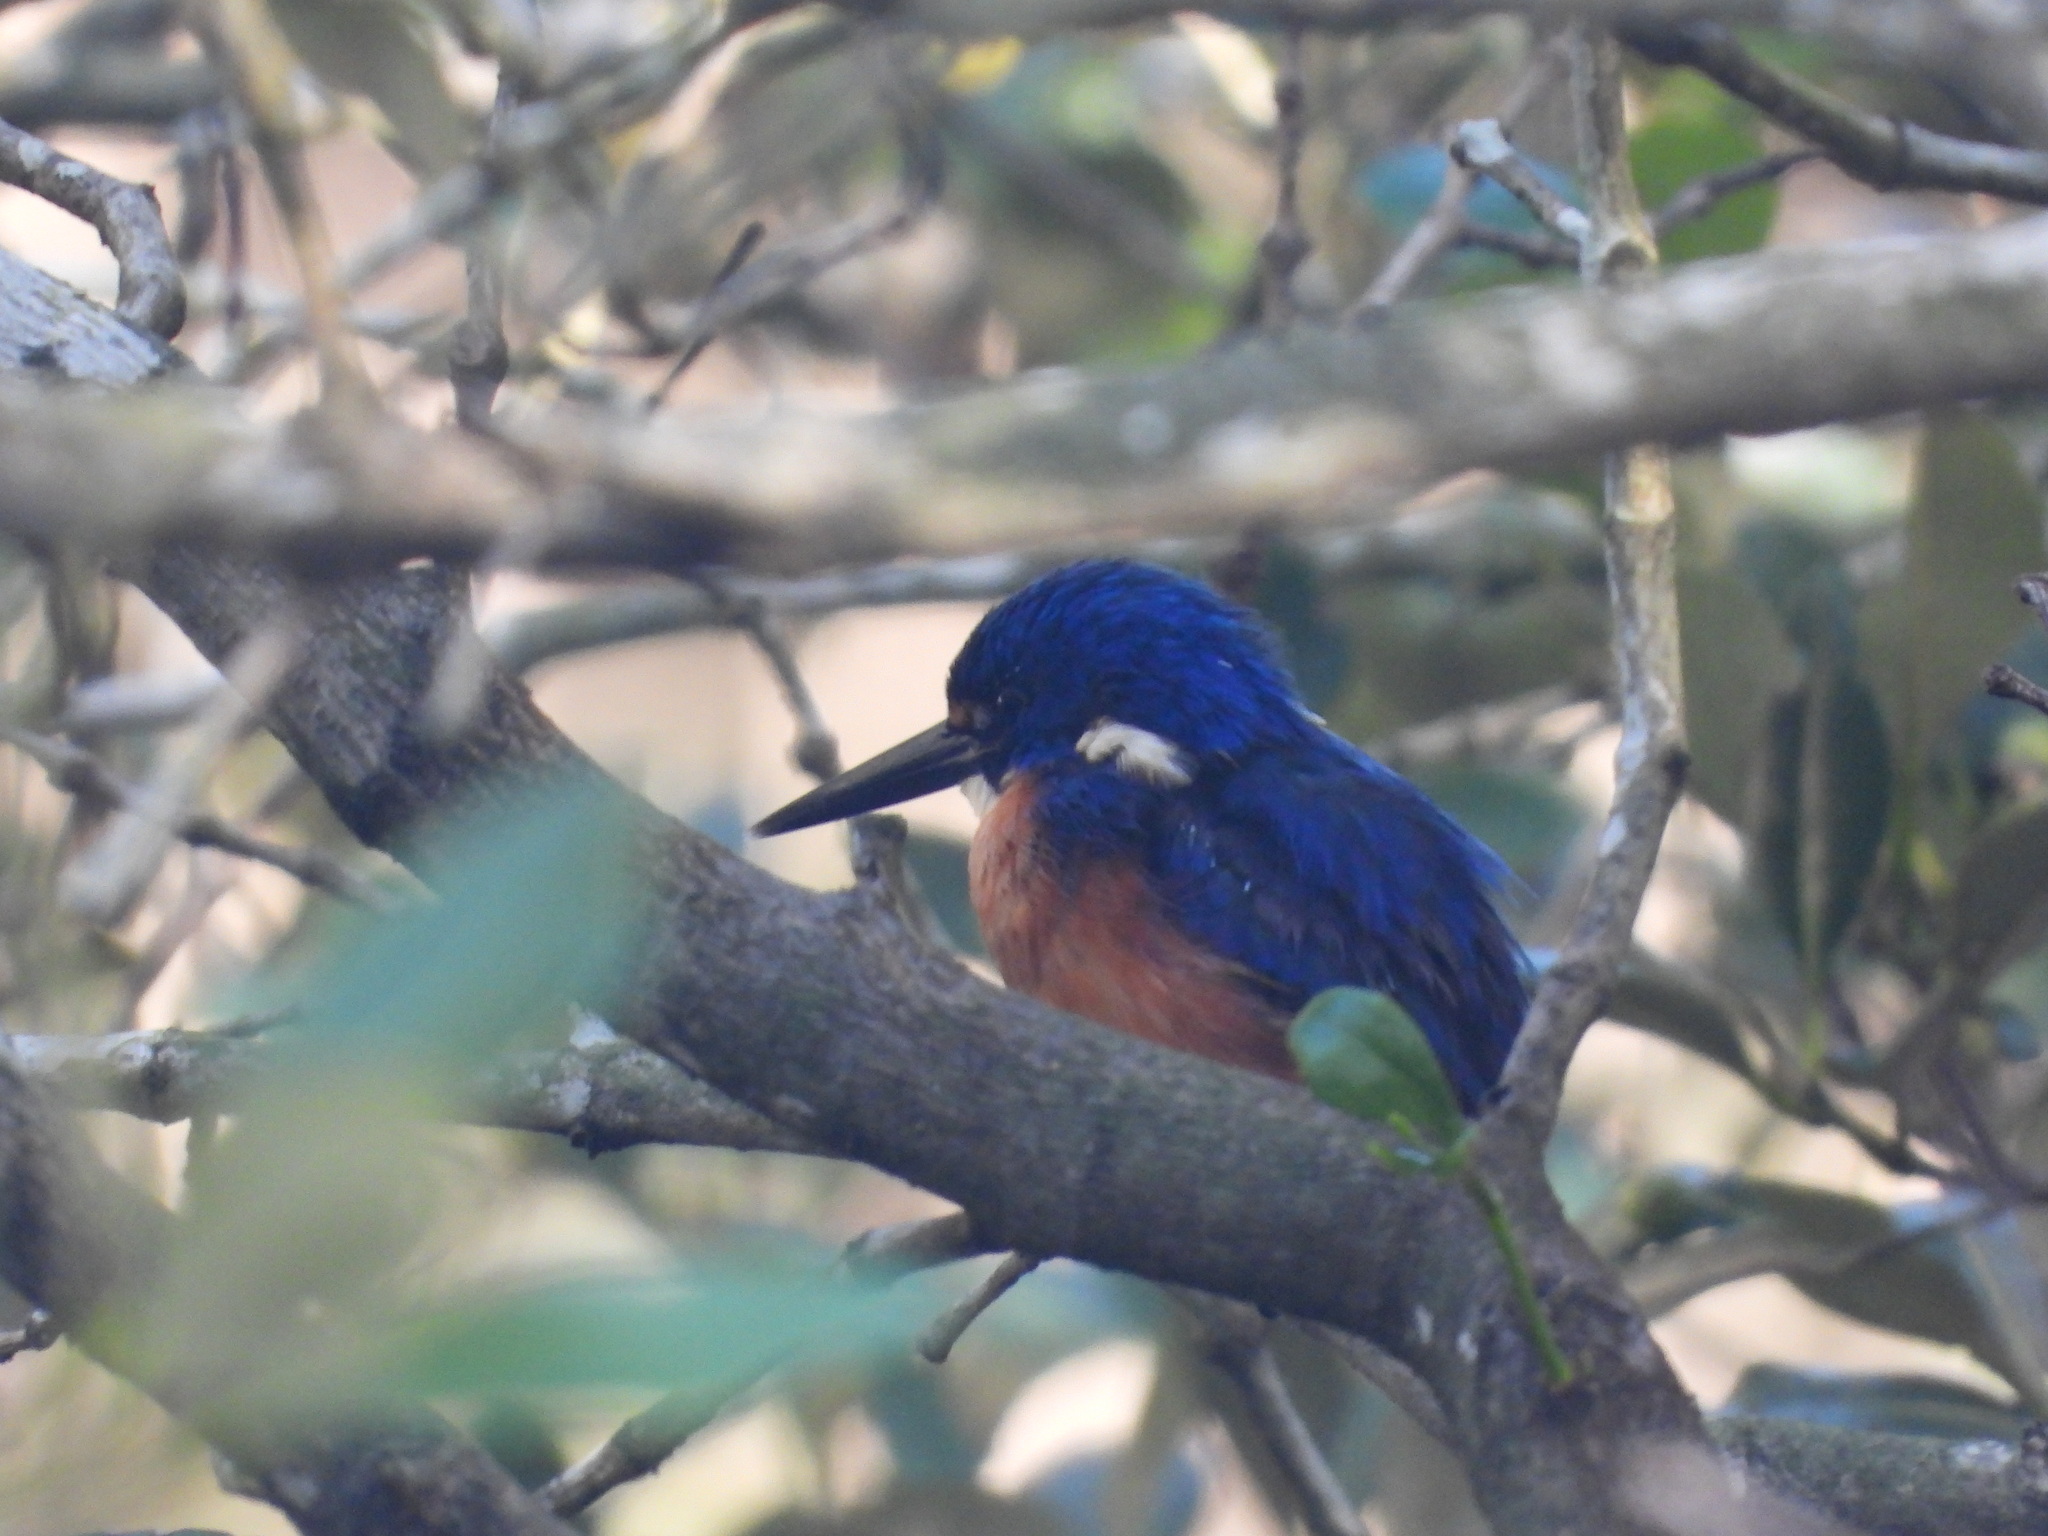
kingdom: Animalia
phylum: Chordata
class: Aves
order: Coraciiformes
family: Alcedinidae
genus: Ceyx
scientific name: Ceyx azureus
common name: Azure kingfisher
